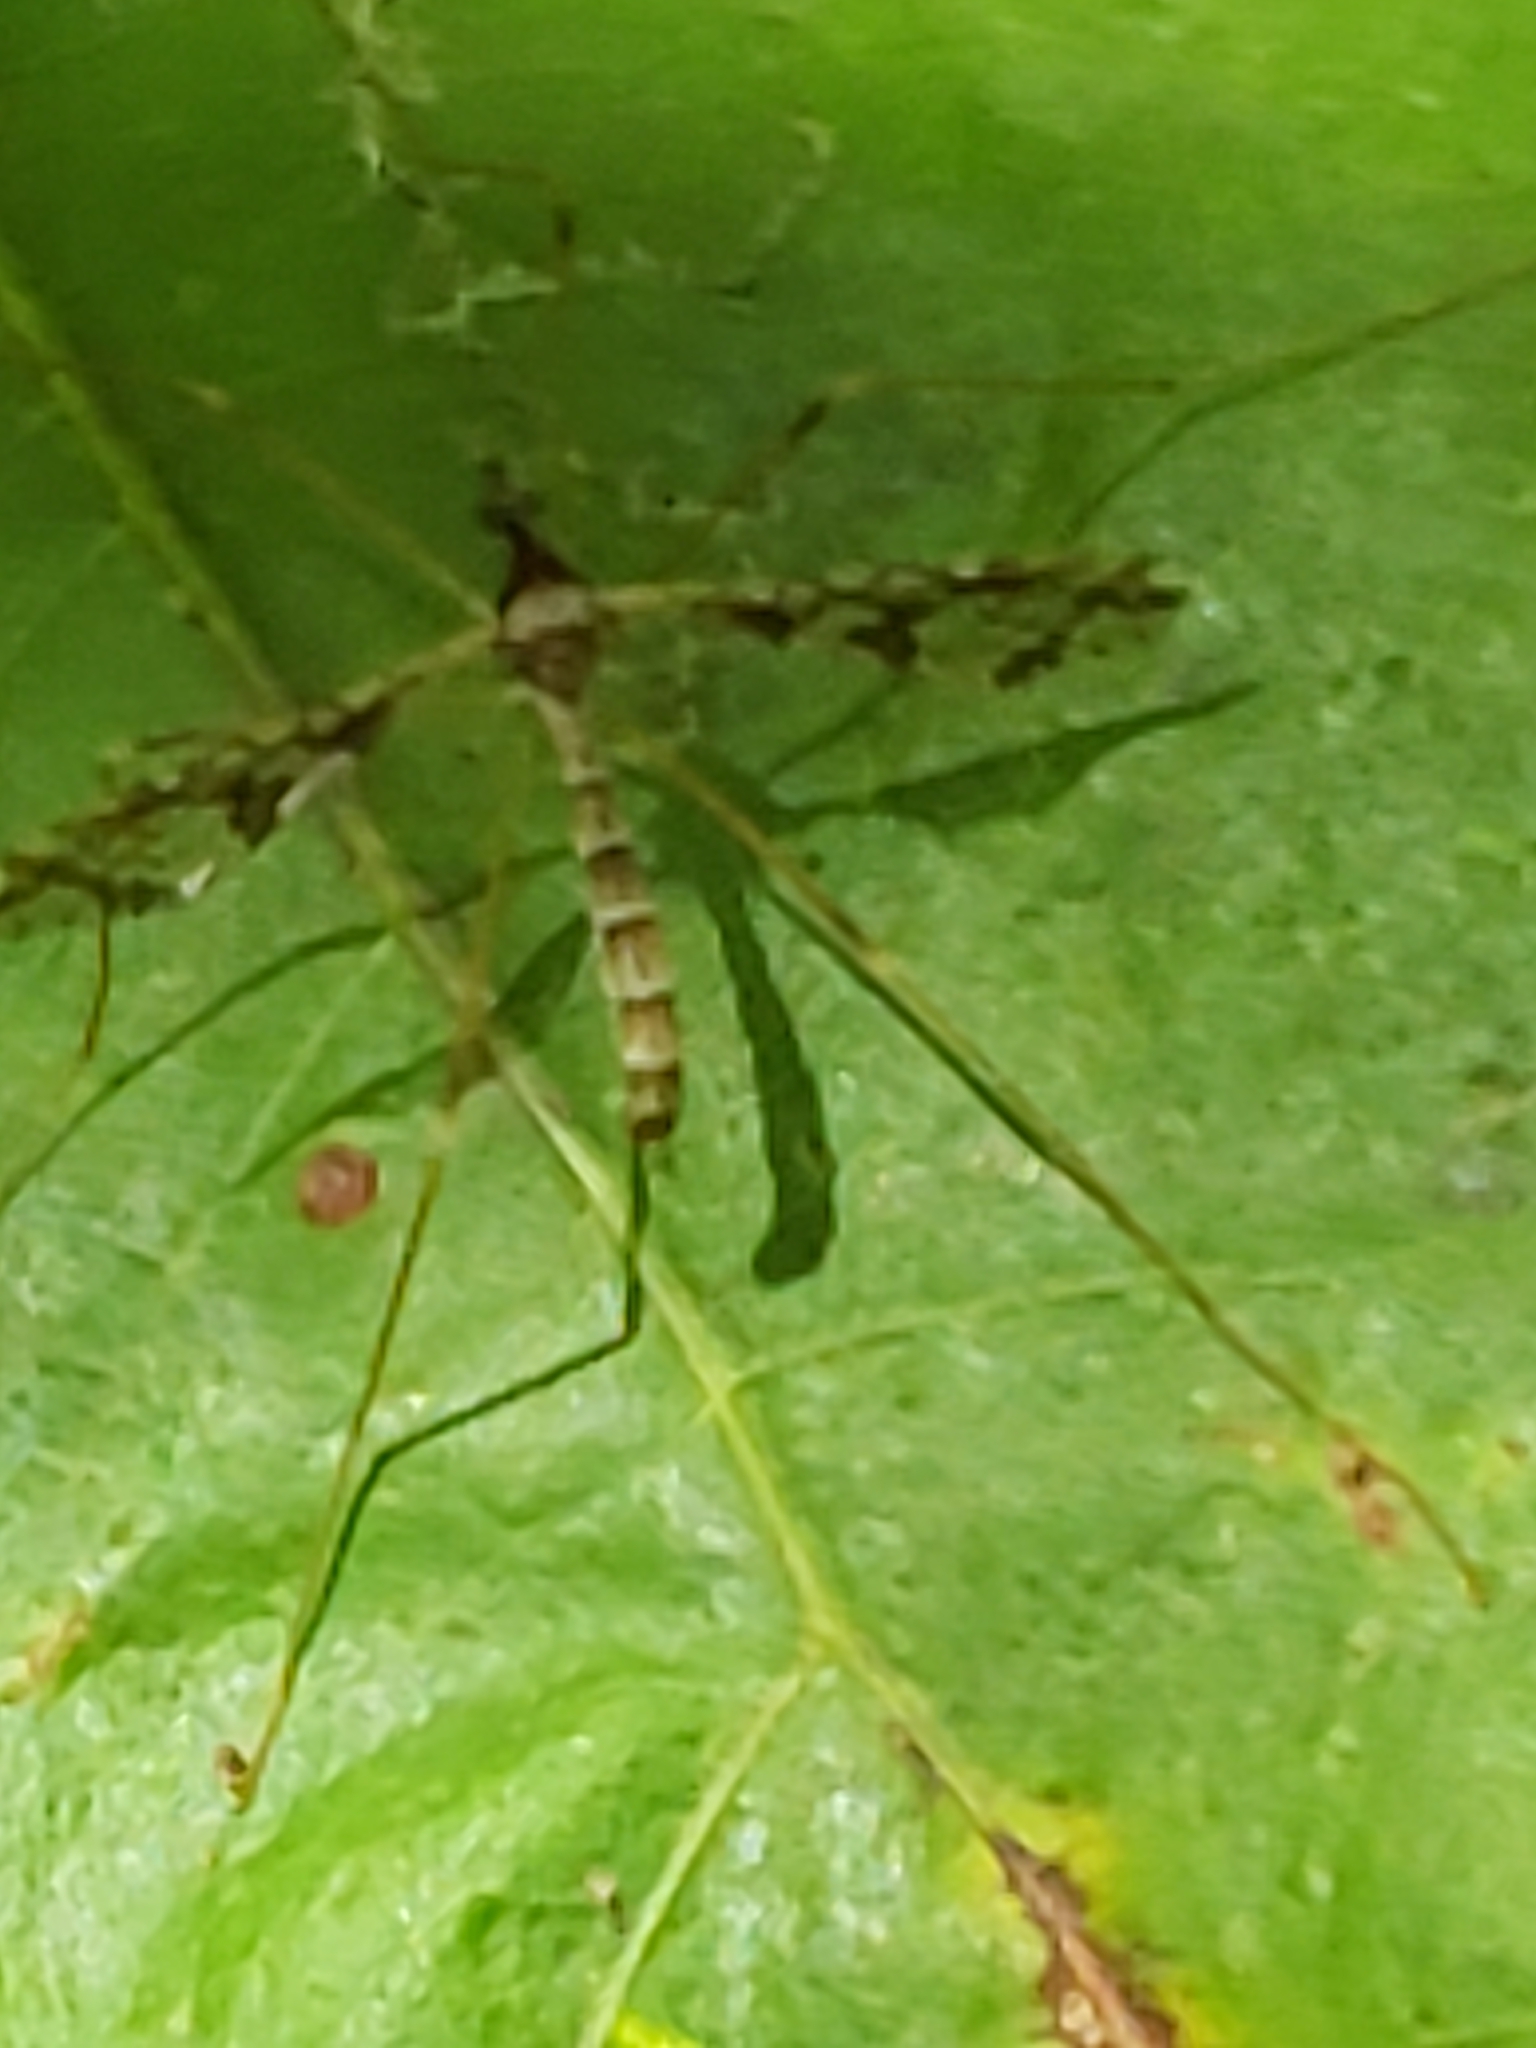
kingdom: Animalia
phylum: Arthropoda
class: Insecta
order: Diptera
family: Limoniidae
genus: Epiphragma
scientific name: Epiphragma solatrix
